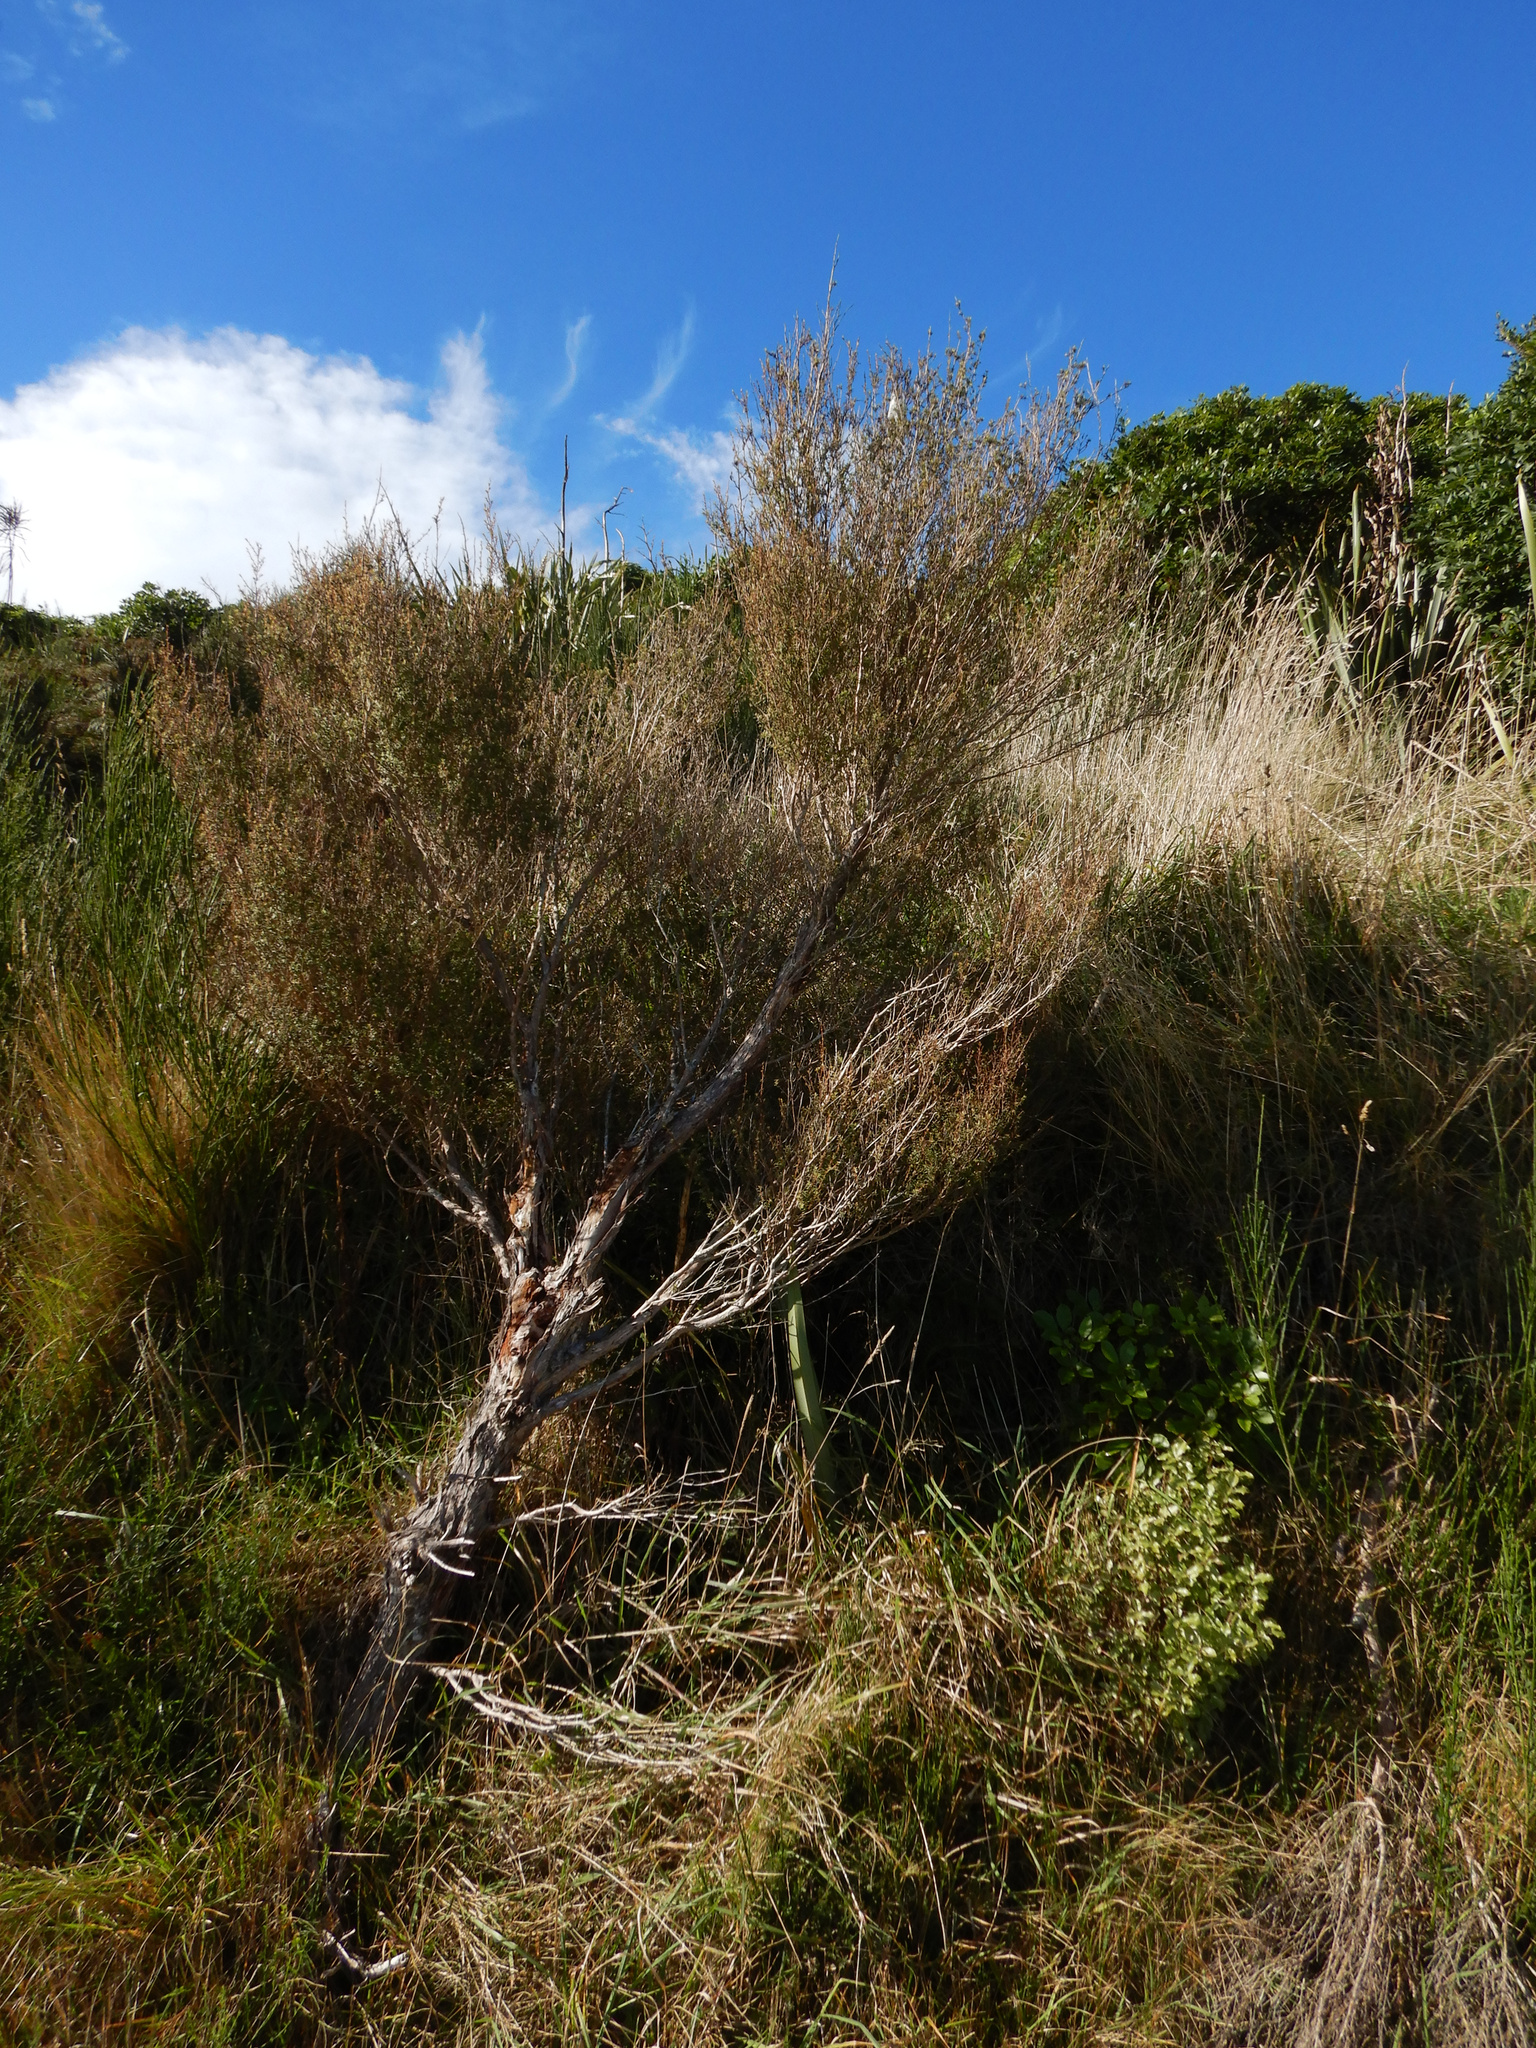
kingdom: Plantae
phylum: Tracheophyta
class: Magnoliopsida
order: Myrtales
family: Myrtaceae
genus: Kunzea
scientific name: Kunzea robusta
